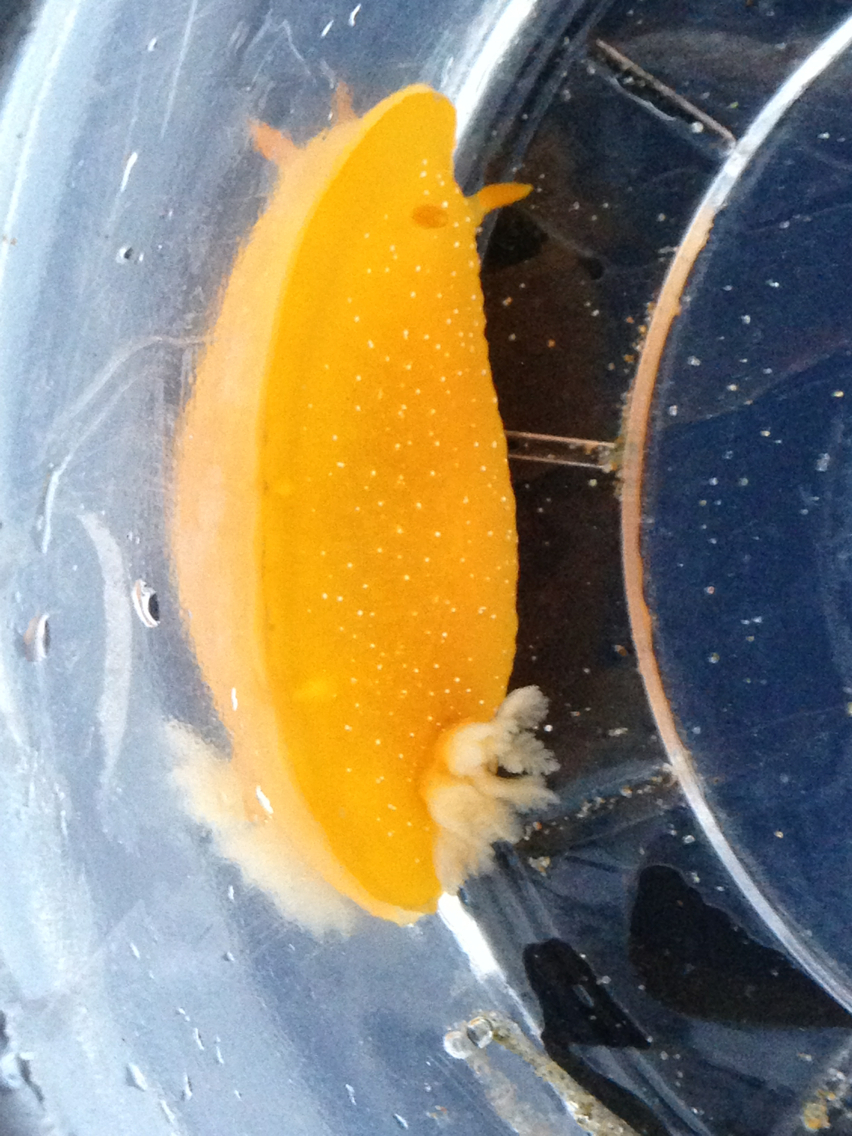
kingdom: Animalia
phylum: Mollusca
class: Gastropoda
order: Nudibranchia
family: Dendrodorididae
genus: Doriopsilla
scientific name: Doriopsilla fulva
